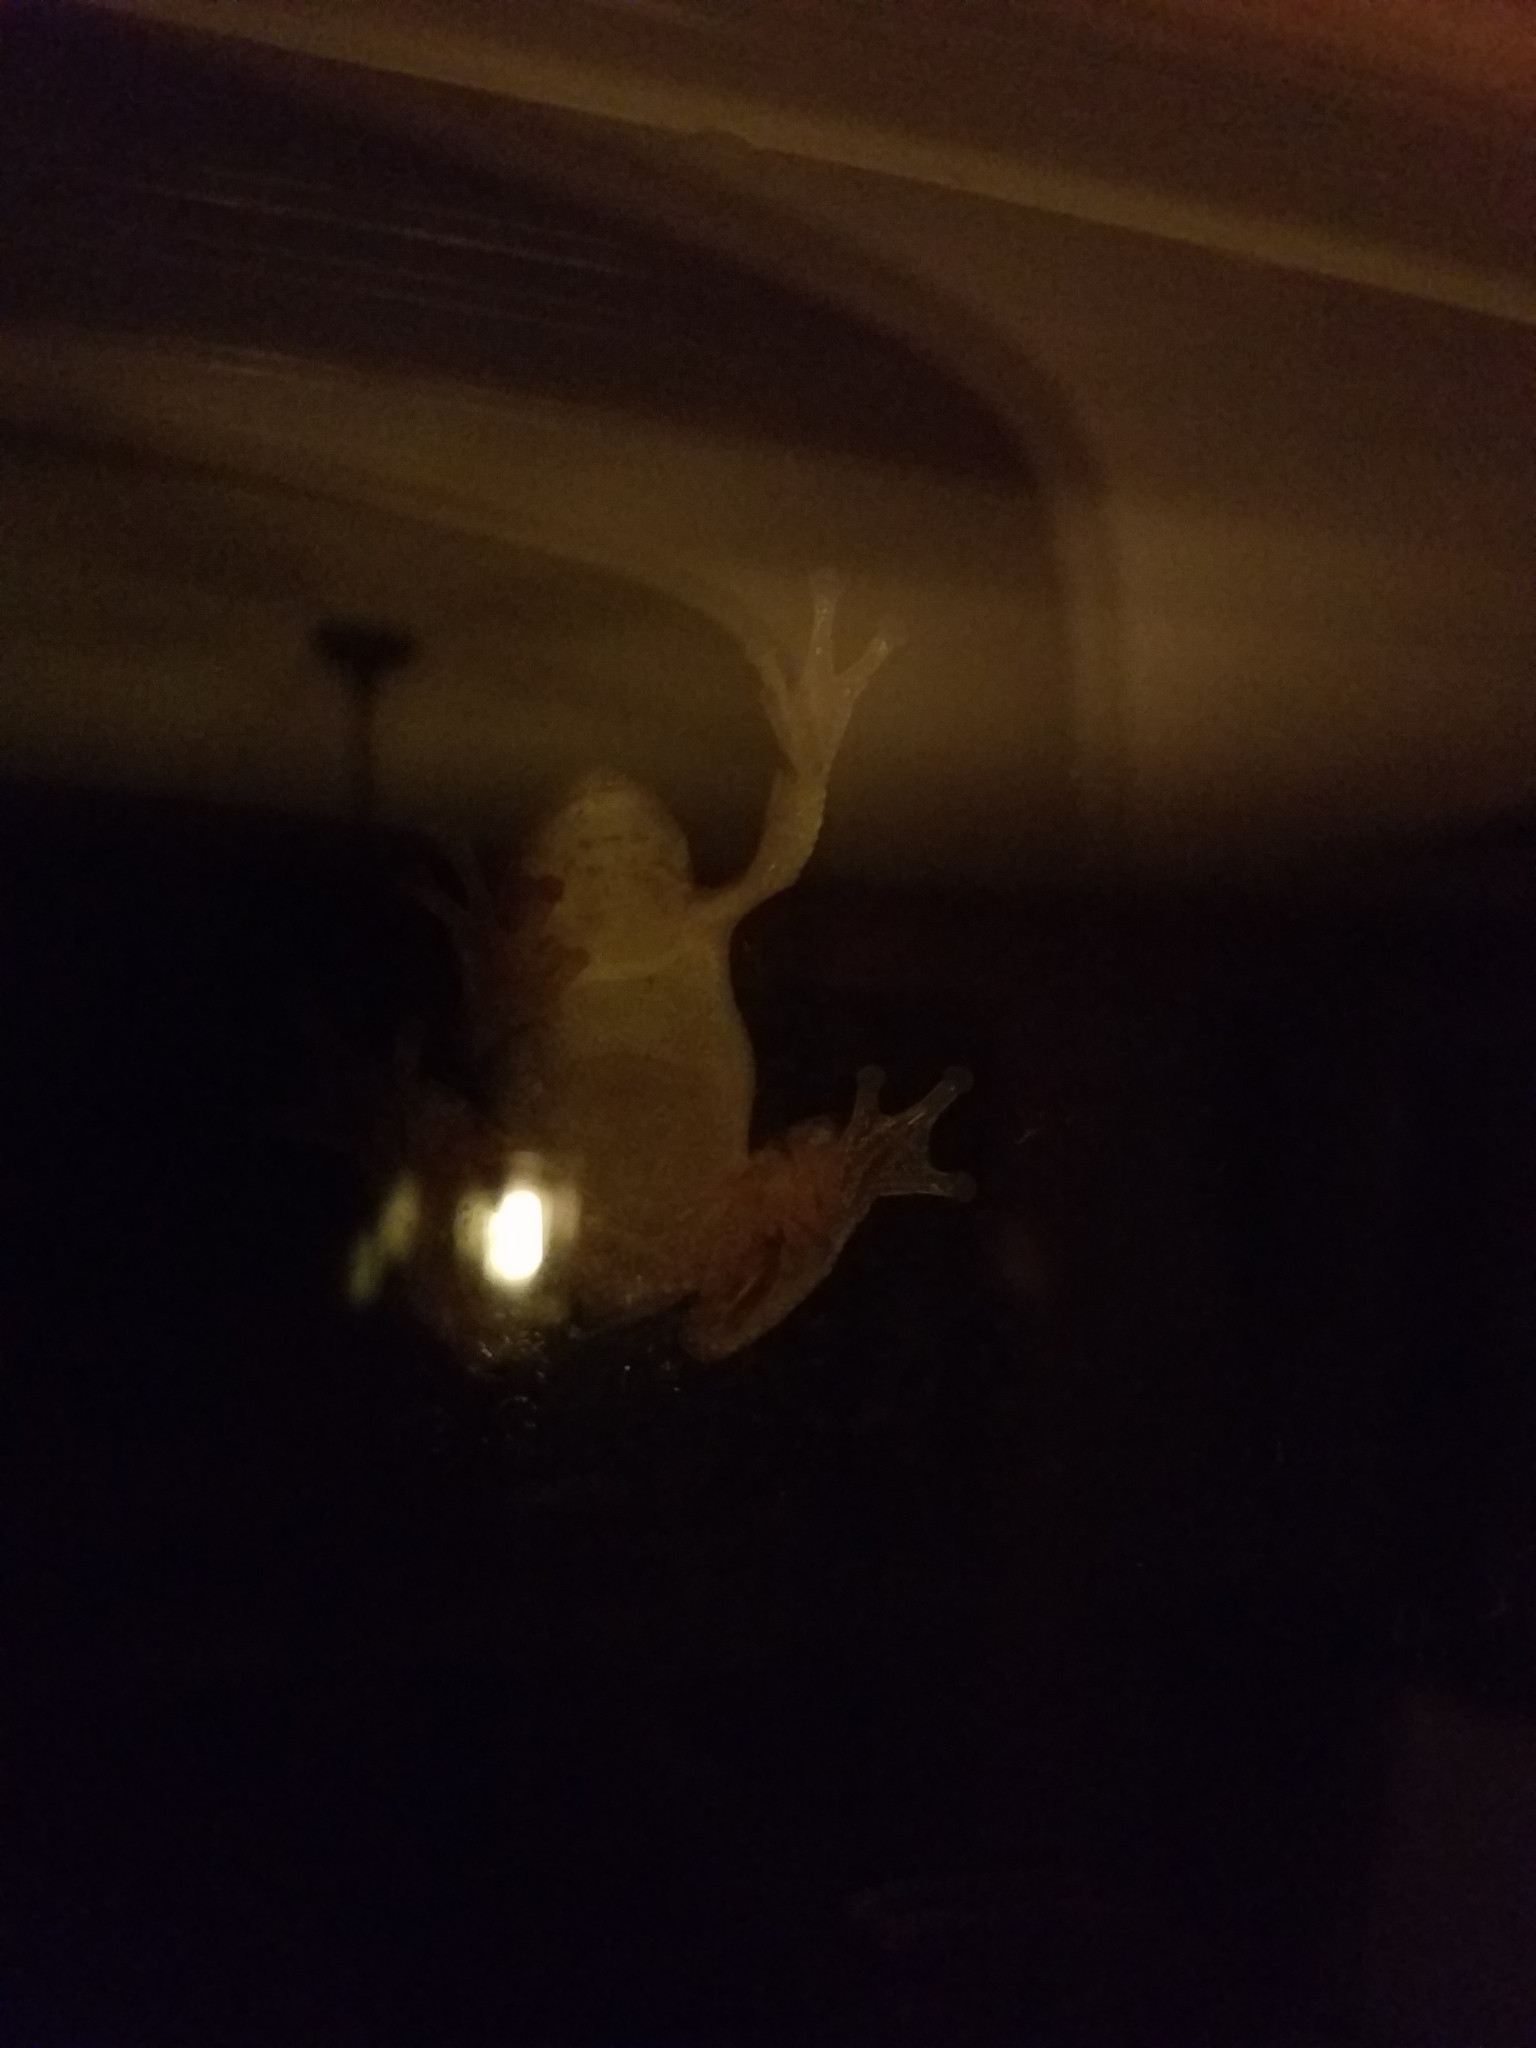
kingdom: Animalia
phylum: Chordata
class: Amphibia
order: Anura
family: Hylidae
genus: Hyla
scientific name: Hyla
